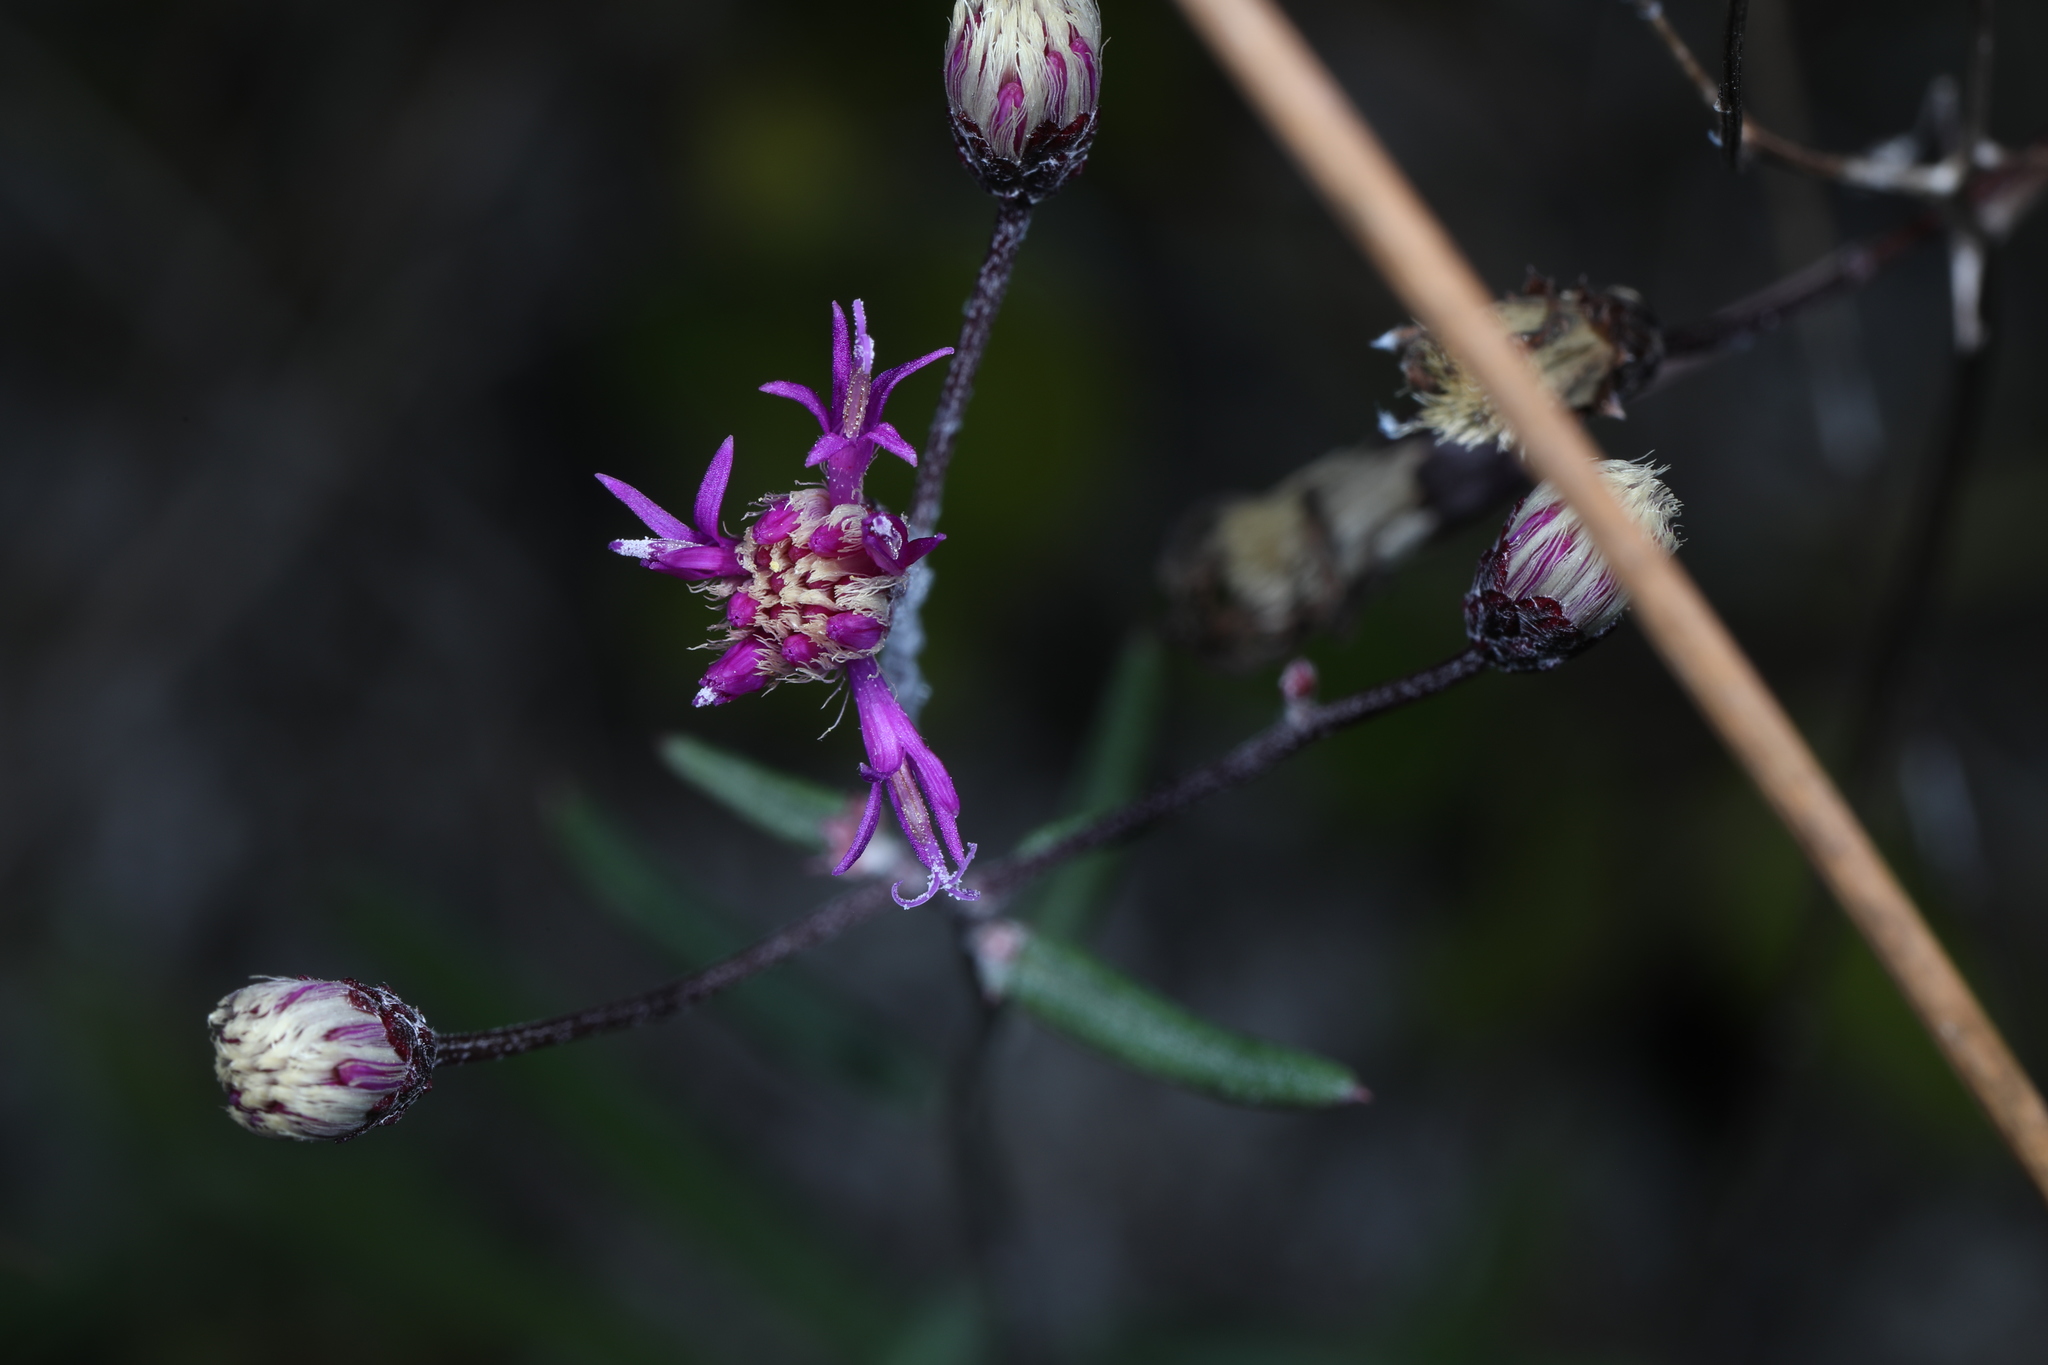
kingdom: Plantae
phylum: Tracheophyta
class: Magnoliopsida
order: Asterales
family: Asteraceae
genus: Vernonia
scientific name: Vernonia blodgettii
